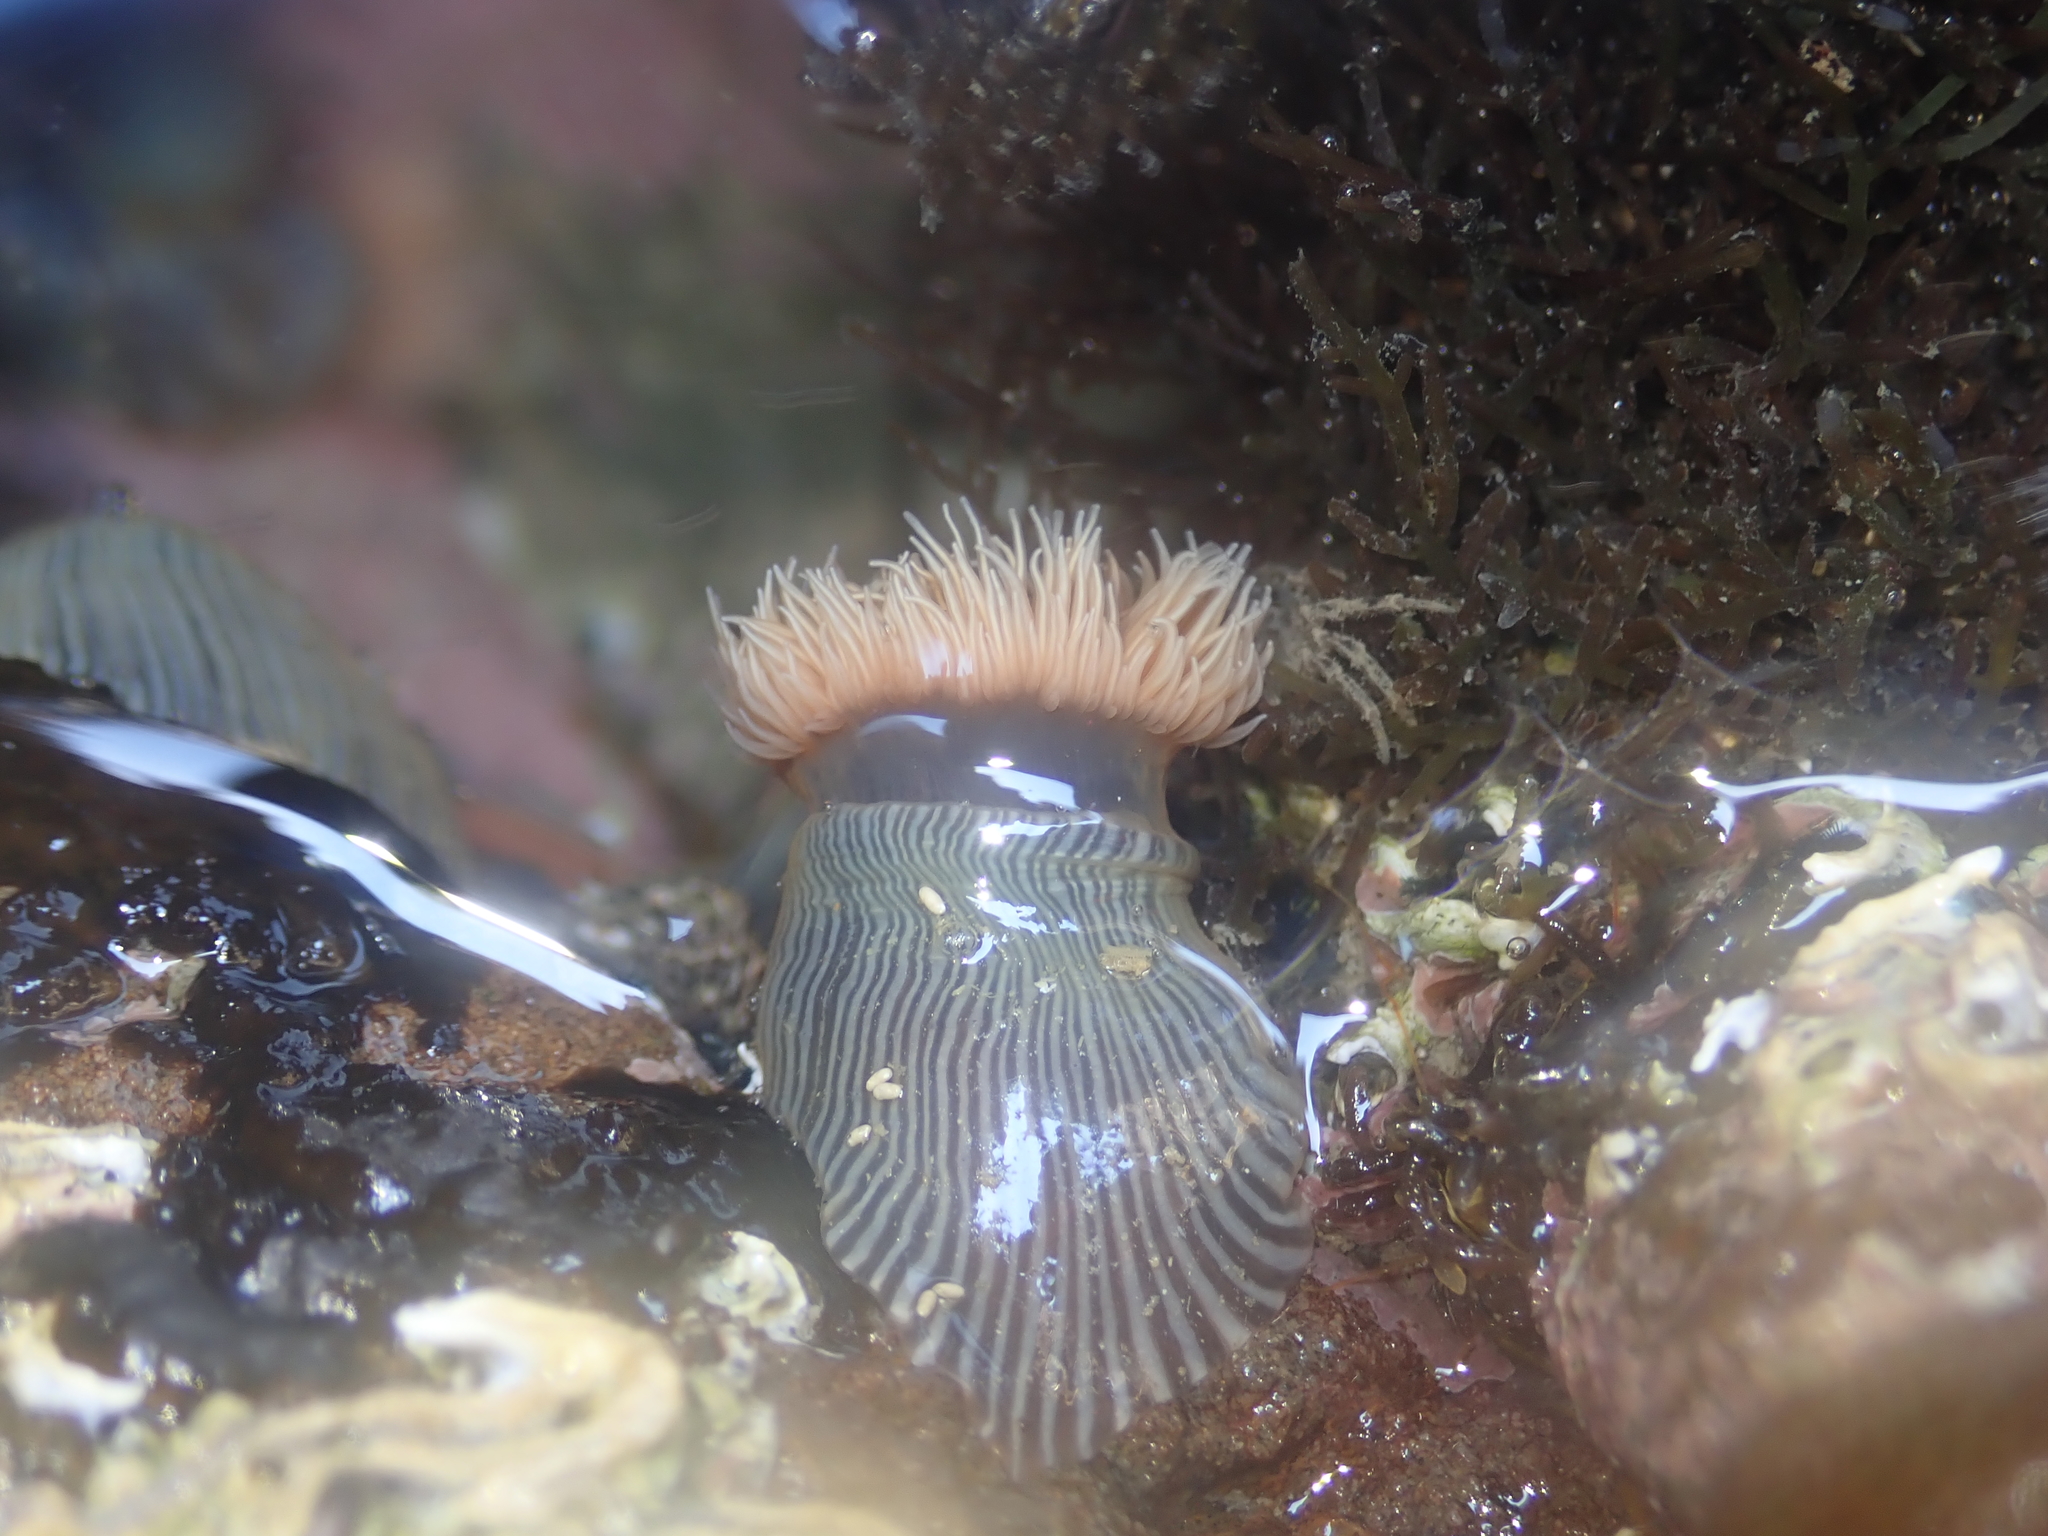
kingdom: Animalia
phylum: Cnidaria
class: Anthozoa
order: Actiniaria
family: Diadumenidae
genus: Diadumene
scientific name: Diadumene neozelanica
